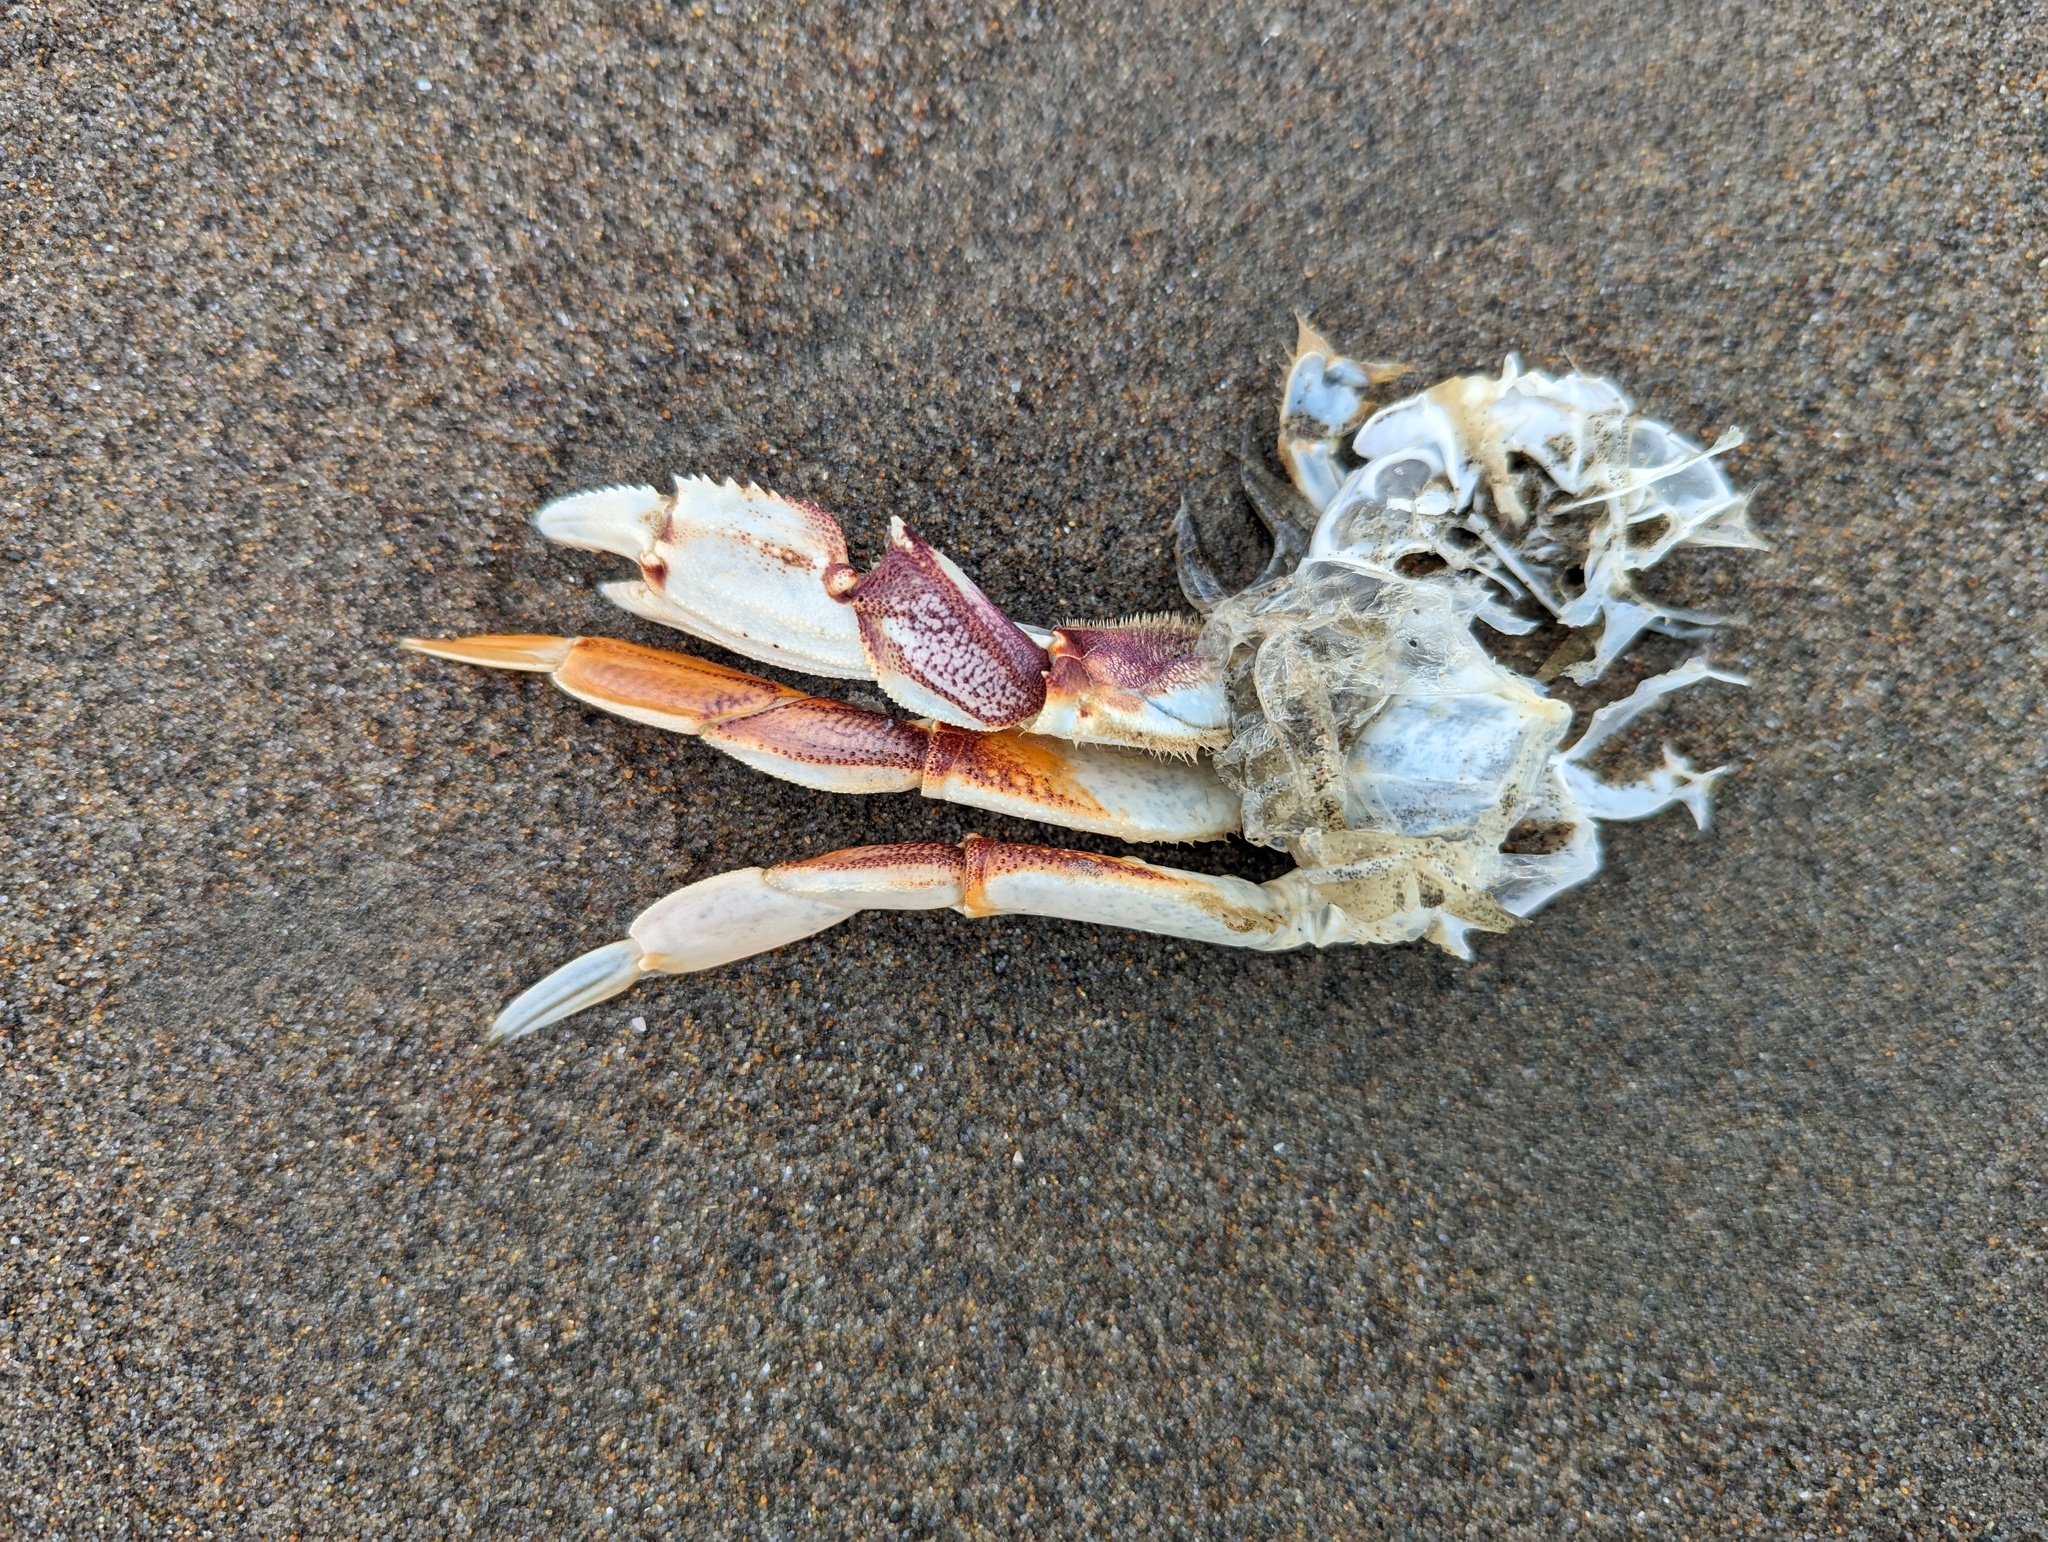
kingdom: Animalia
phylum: Arthropoda
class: Malacostraca
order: Decapoda
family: Cancridae
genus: Metacarcinus
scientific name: Metacarcinus magister
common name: Californian crab
